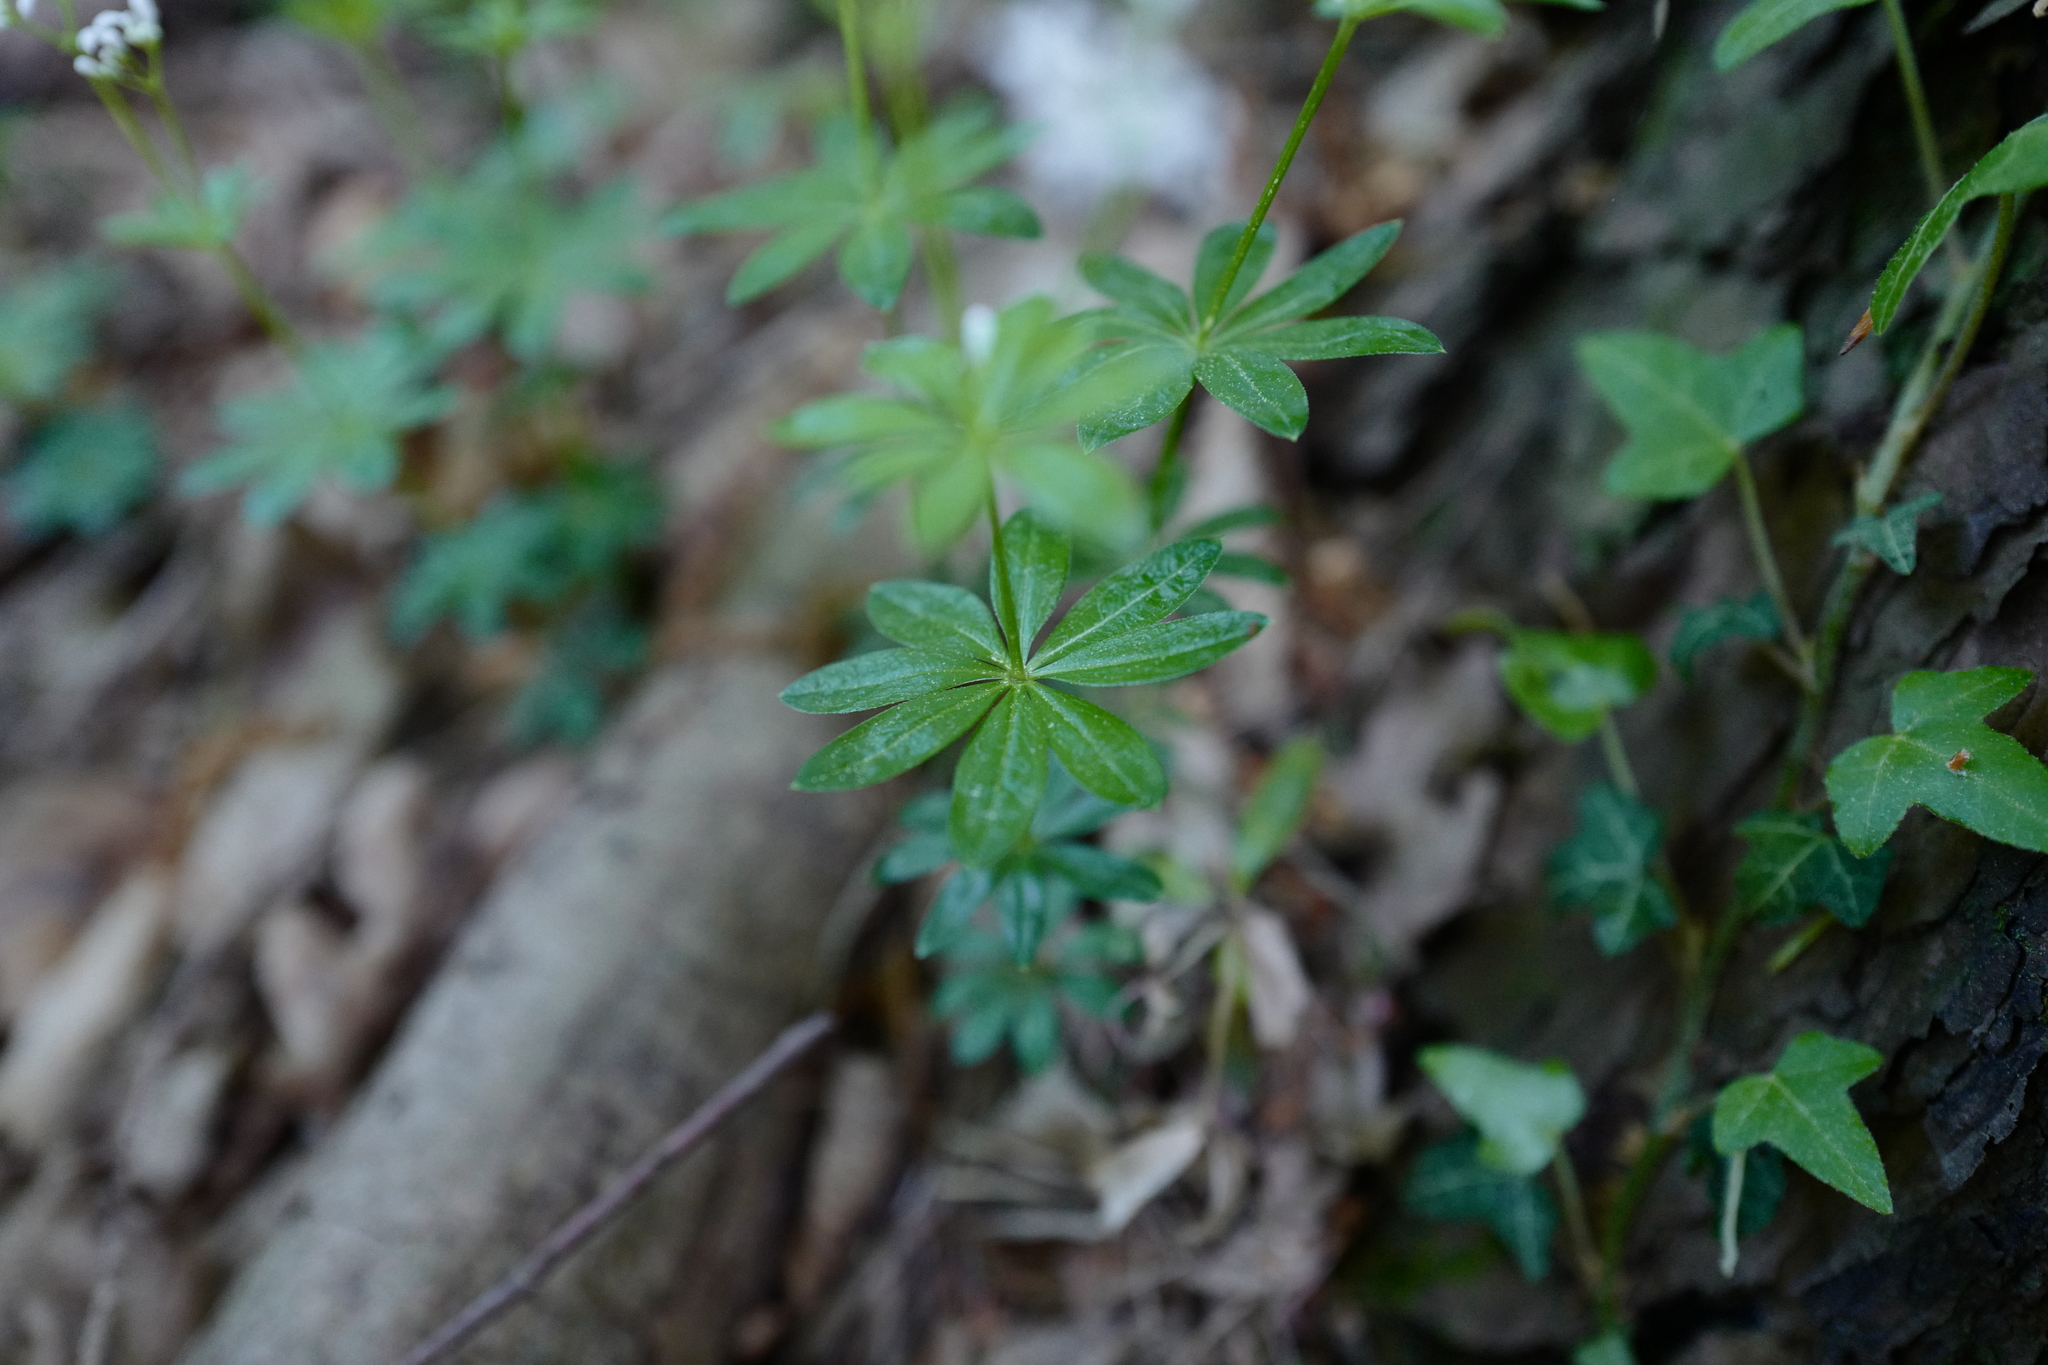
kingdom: Plantae
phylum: Tracheophyta
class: Magnoliopsida
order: Gentianales
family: Rubiaceae
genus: Galium
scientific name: Galium odoratum
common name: Sweet woodruff
